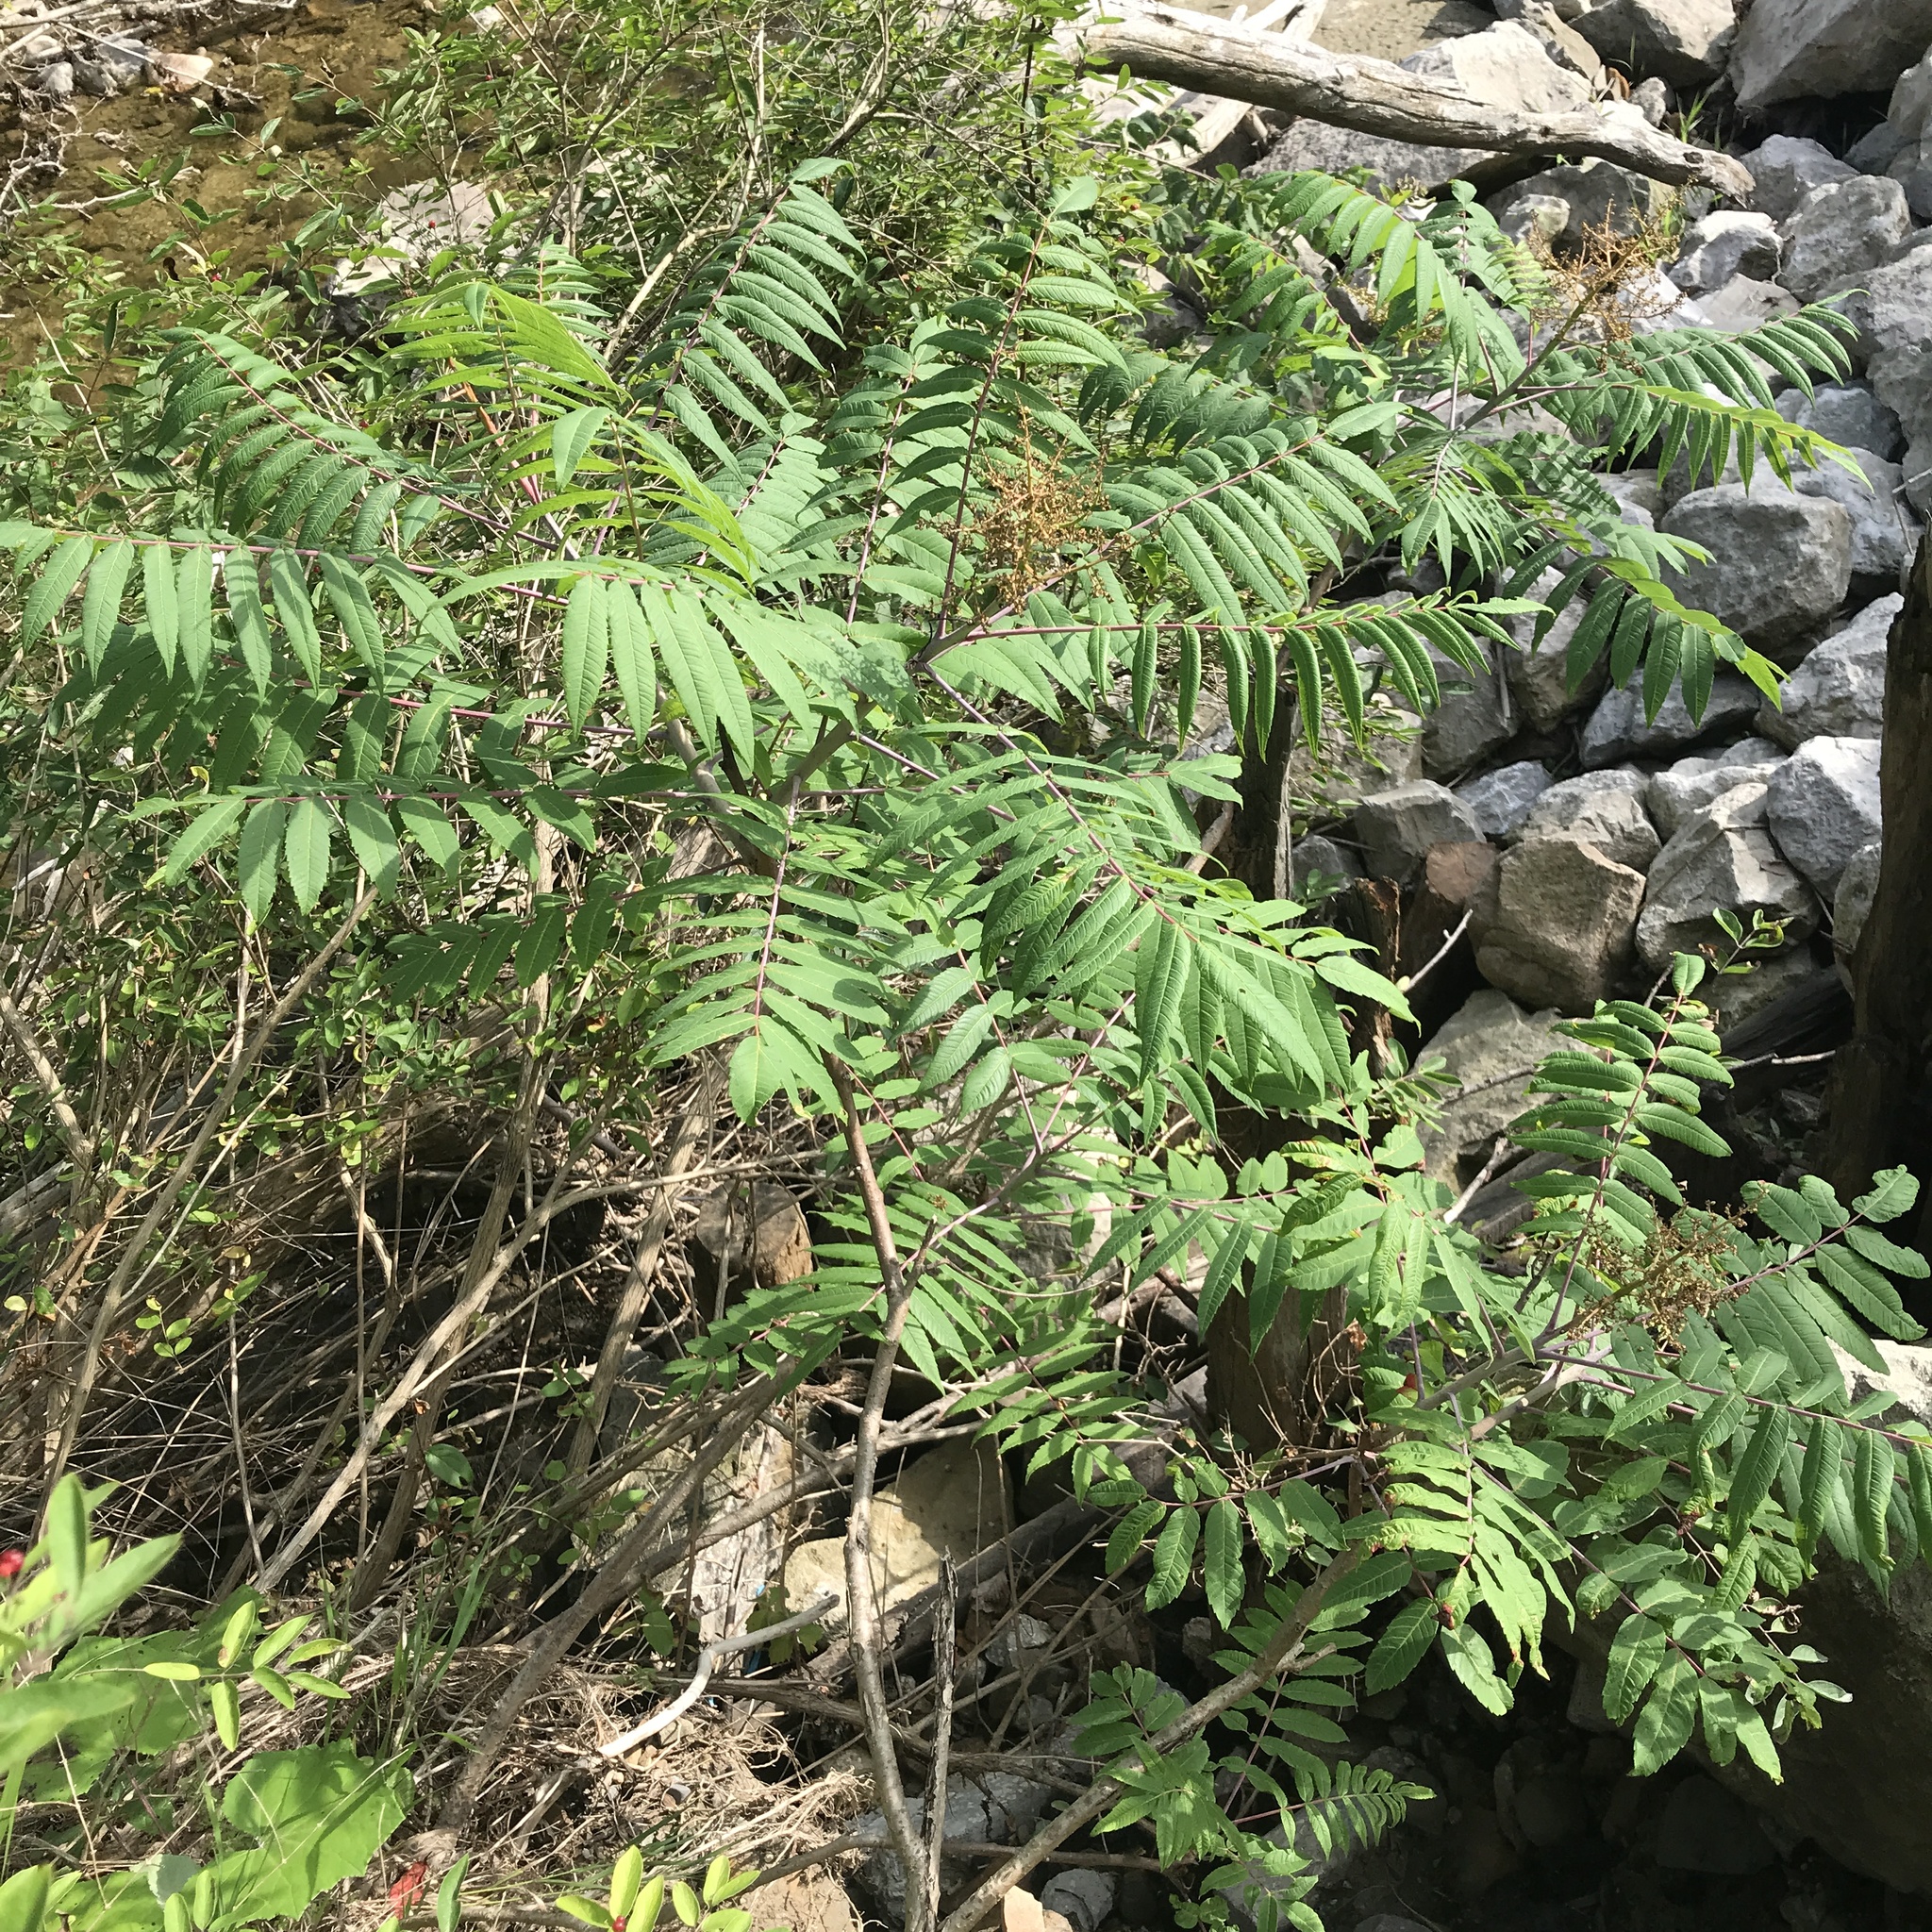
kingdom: Plantae
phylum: Tracheophyta
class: Magnoliopsida
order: Sapindales
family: Anacardiaceae
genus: Rhus
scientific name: Rhus glabra
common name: Scarlet sumac
